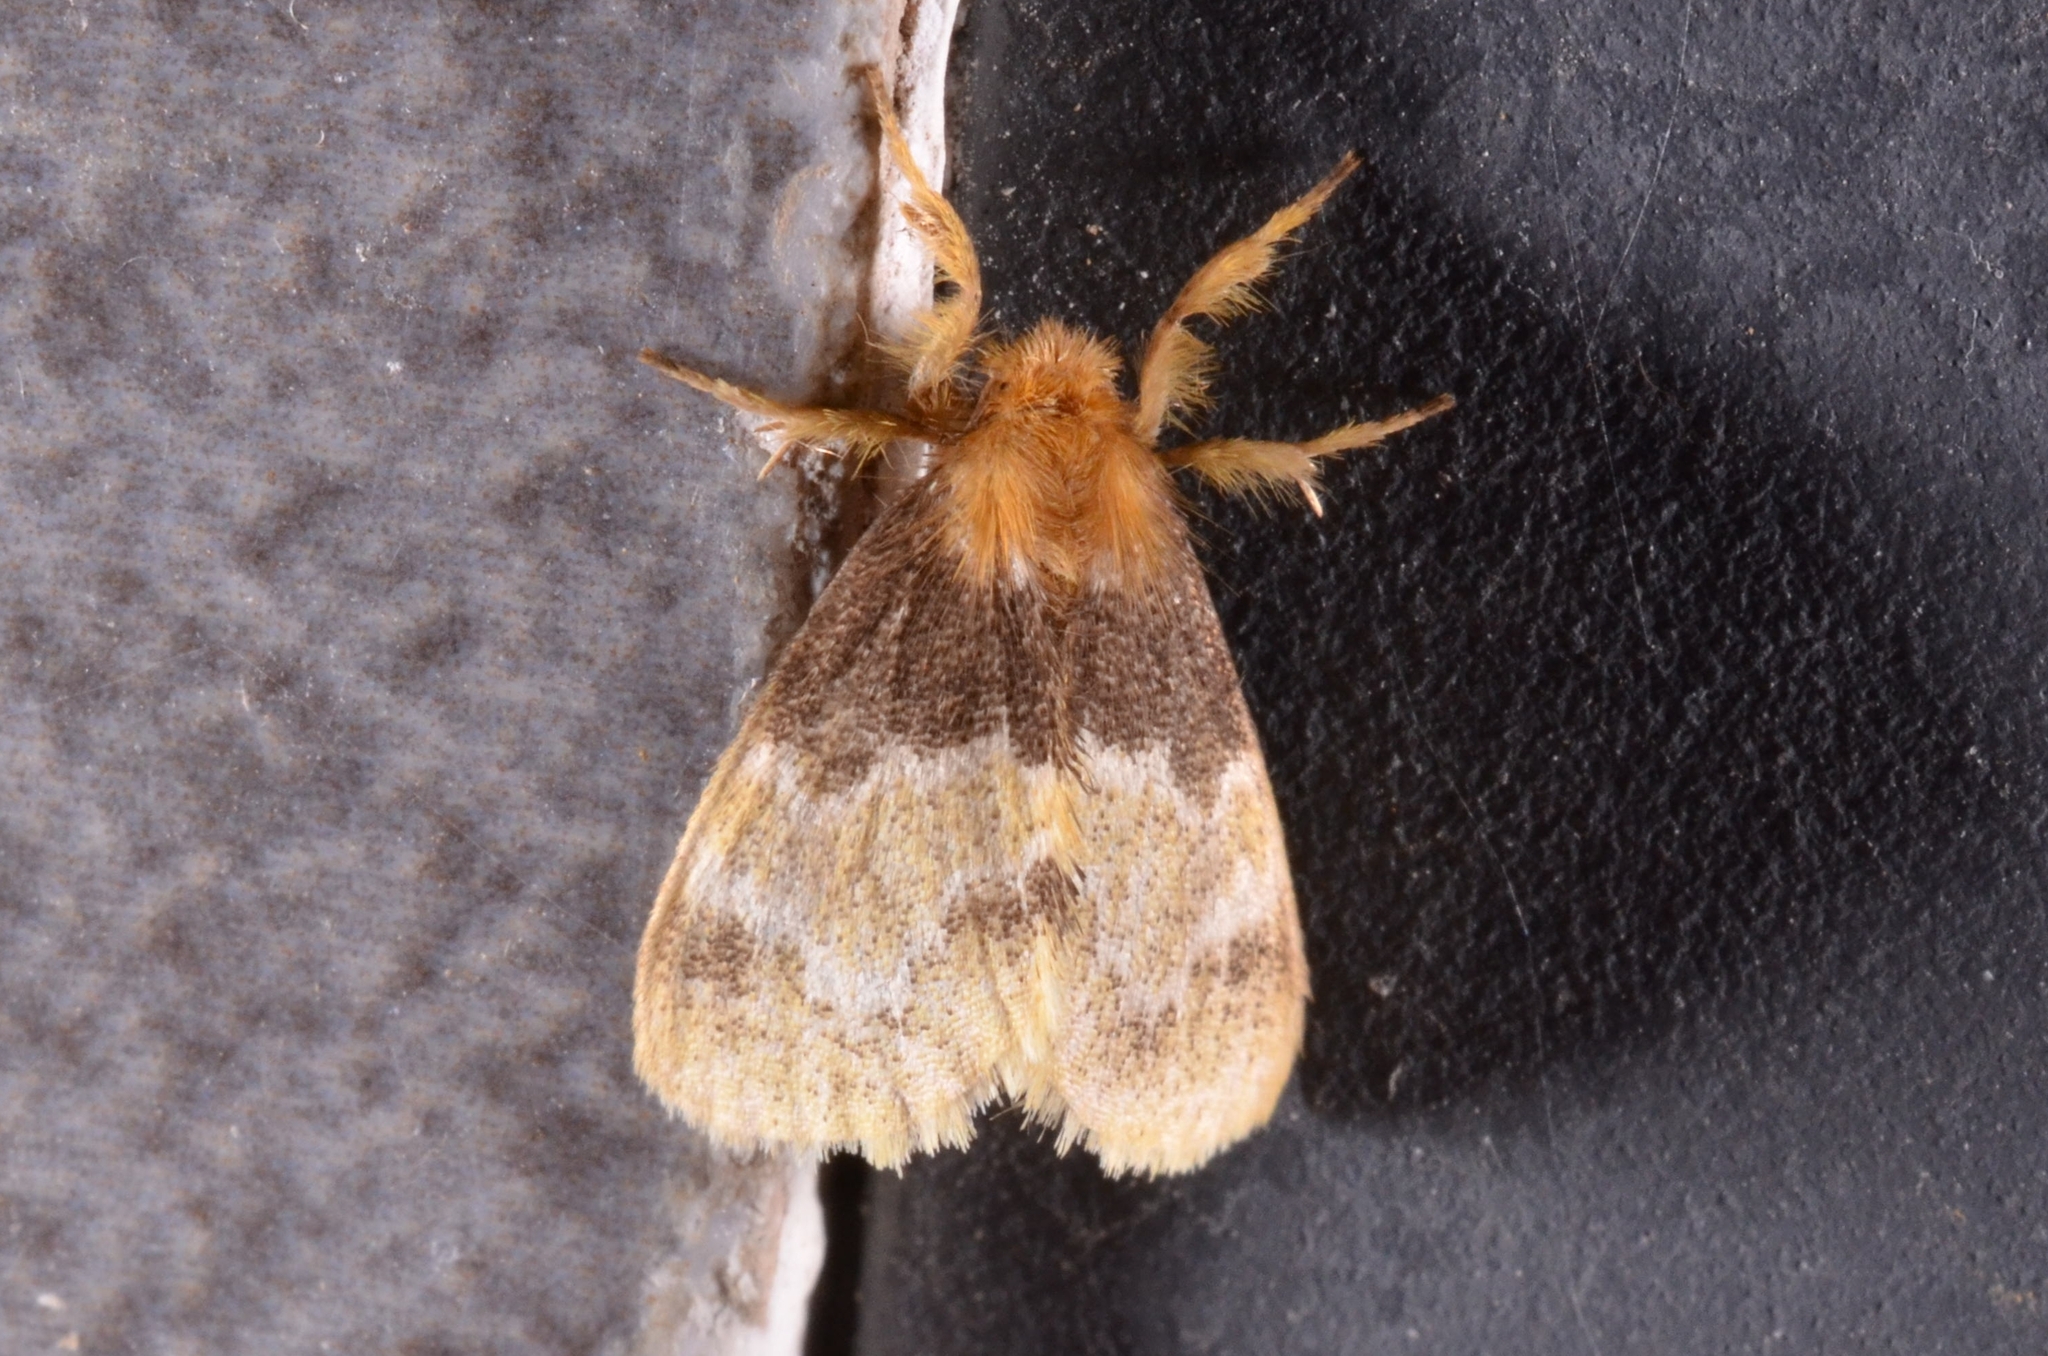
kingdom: Animalia
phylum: Arthropoda
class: Insecta
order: Lepidoptera
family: Erebidae
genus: Rhypotoses
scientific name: Rhypotoses adela
